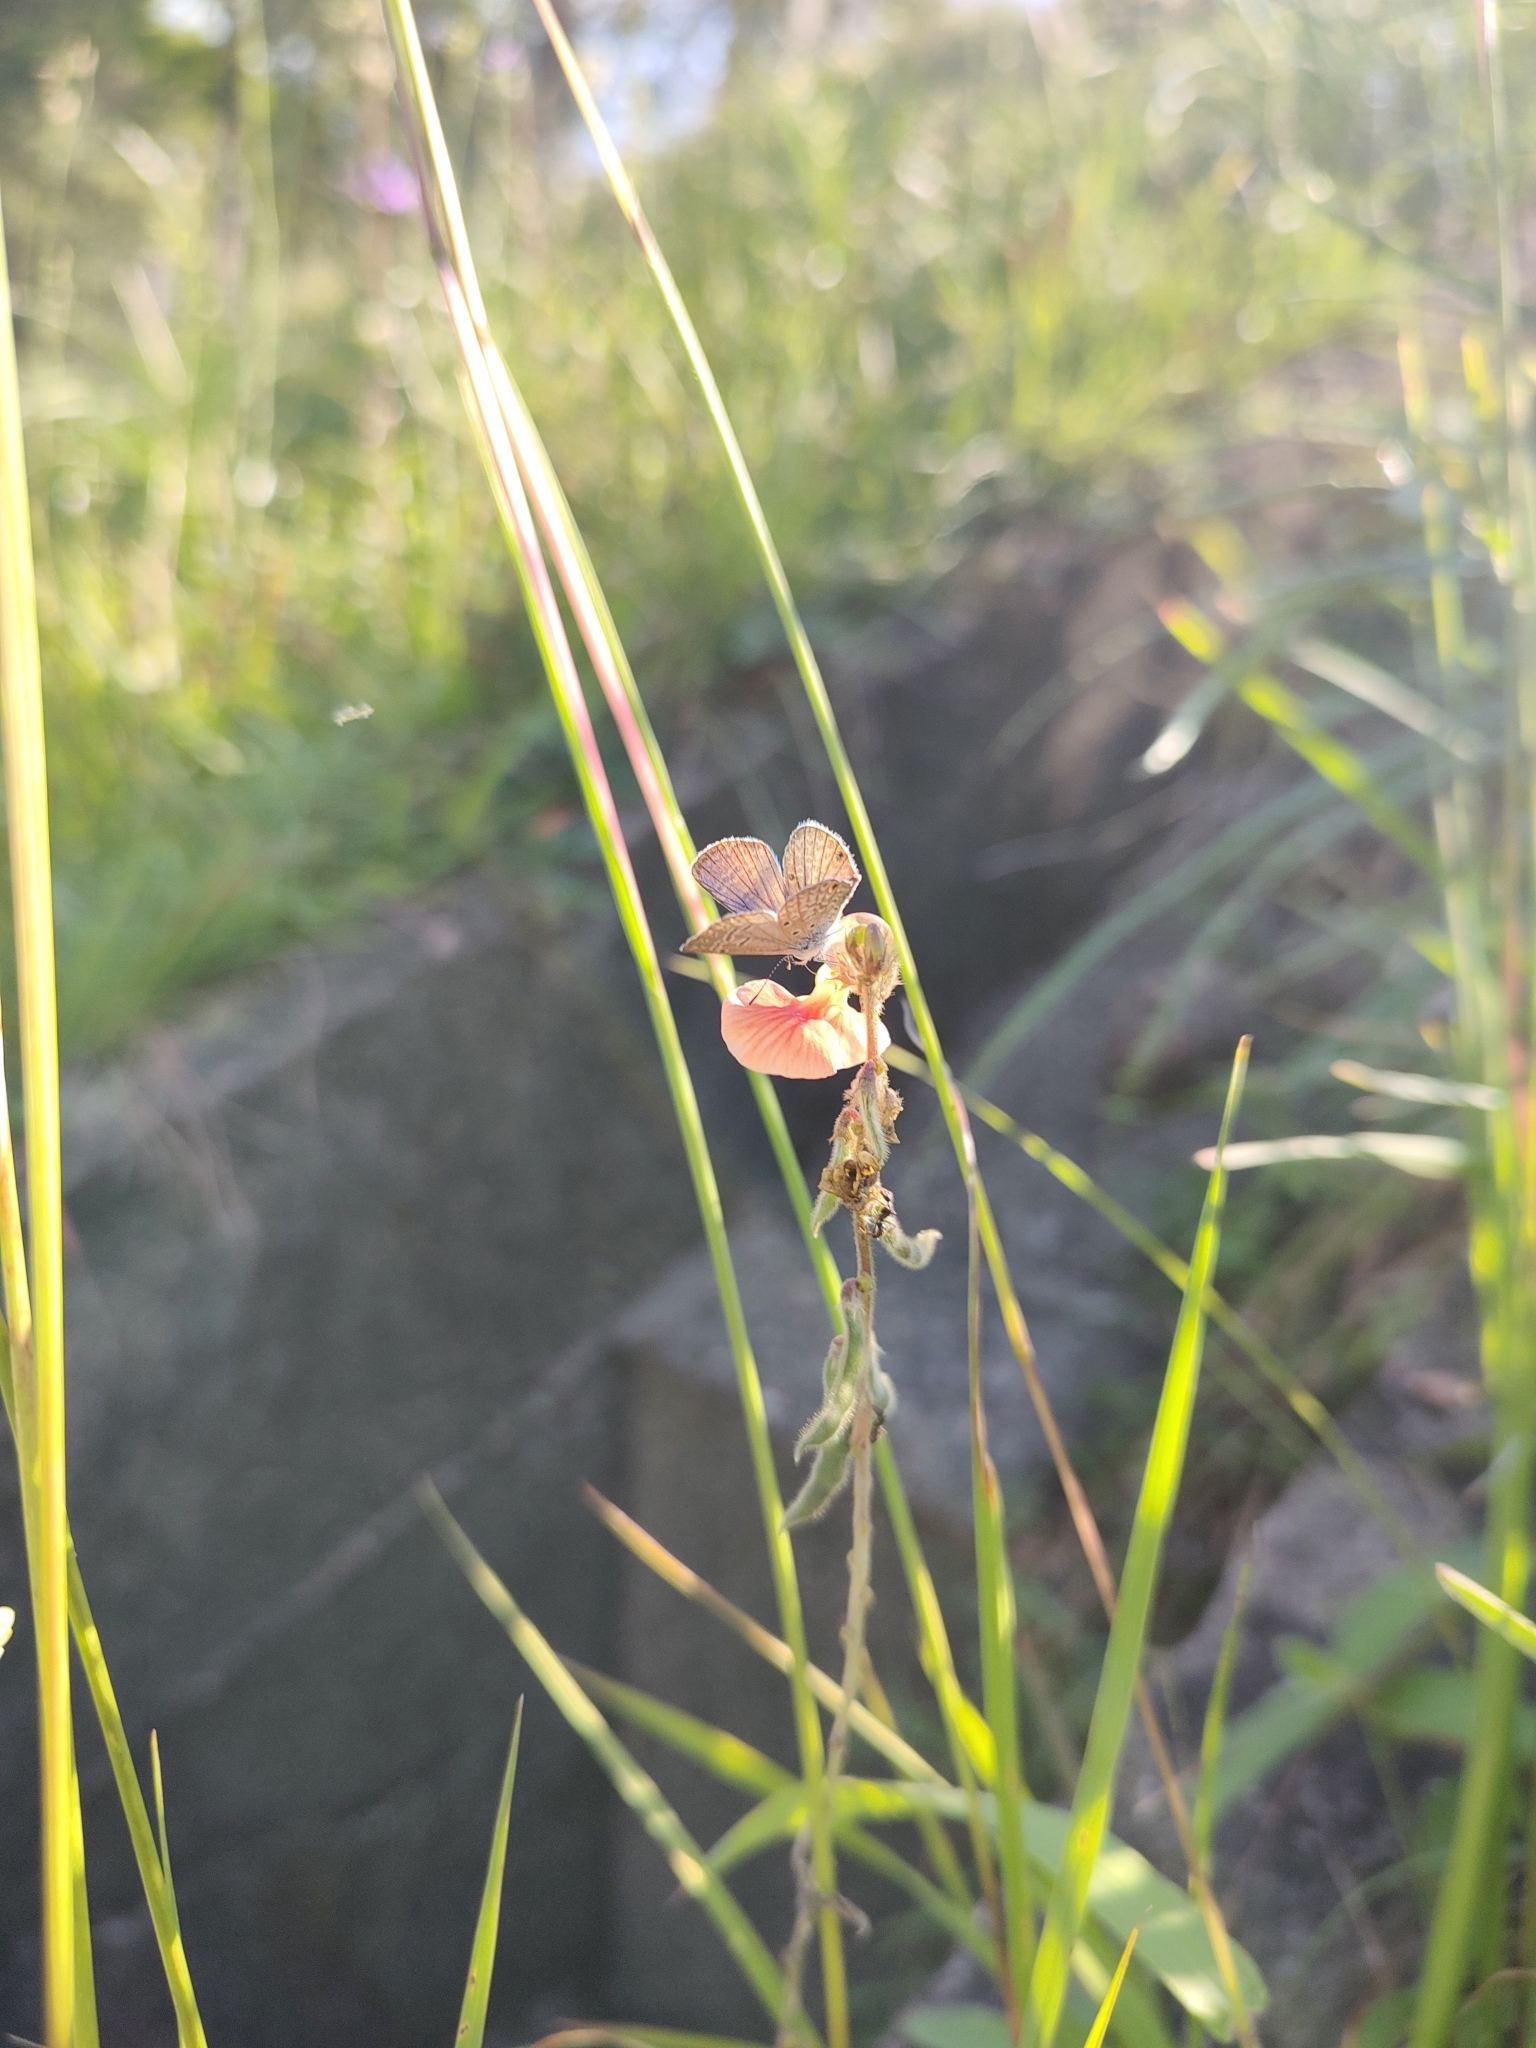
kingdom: Animalia
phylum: Arthropoda
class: Insecta
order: Lepidoptera
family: Lycaenidae
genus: Hemiargus
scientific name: Hemiargus hanno
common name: Common blue
